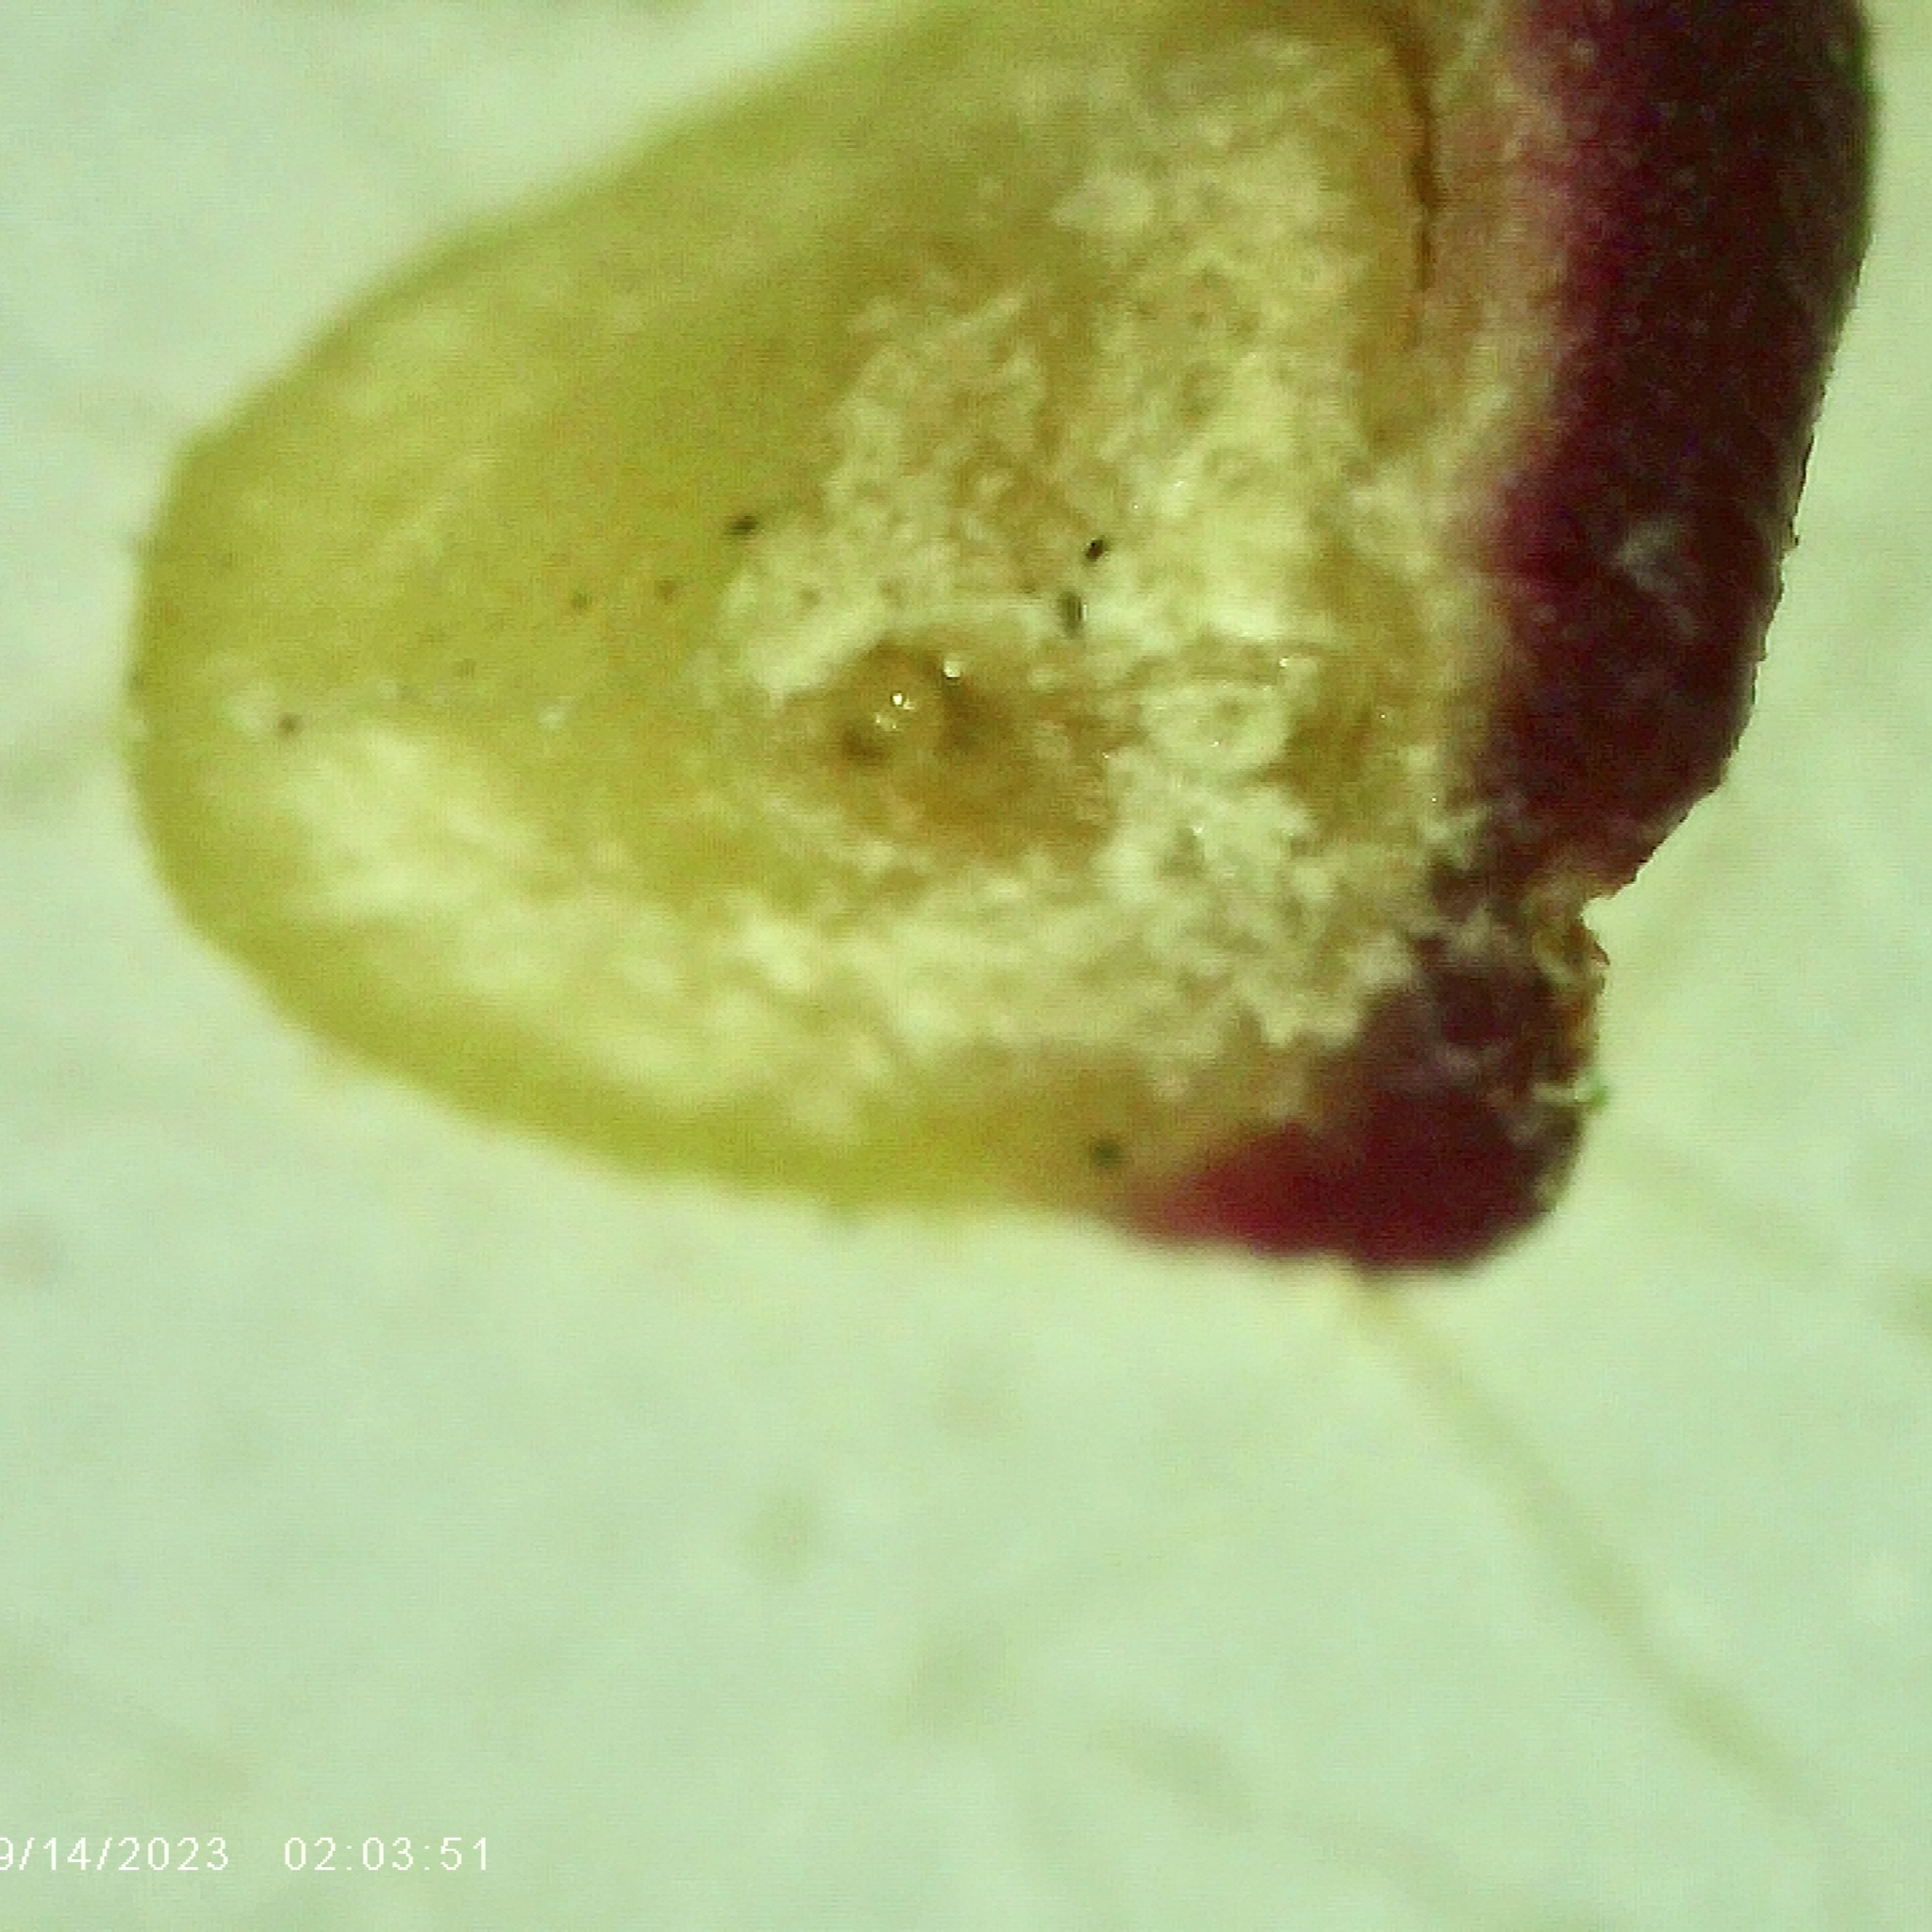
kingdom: Animalia
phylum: Arthropoda
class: Insecta
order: Hymenoptera
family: Cynipidae
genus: Kokkocynips
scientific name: Kokkocynips rileyi
